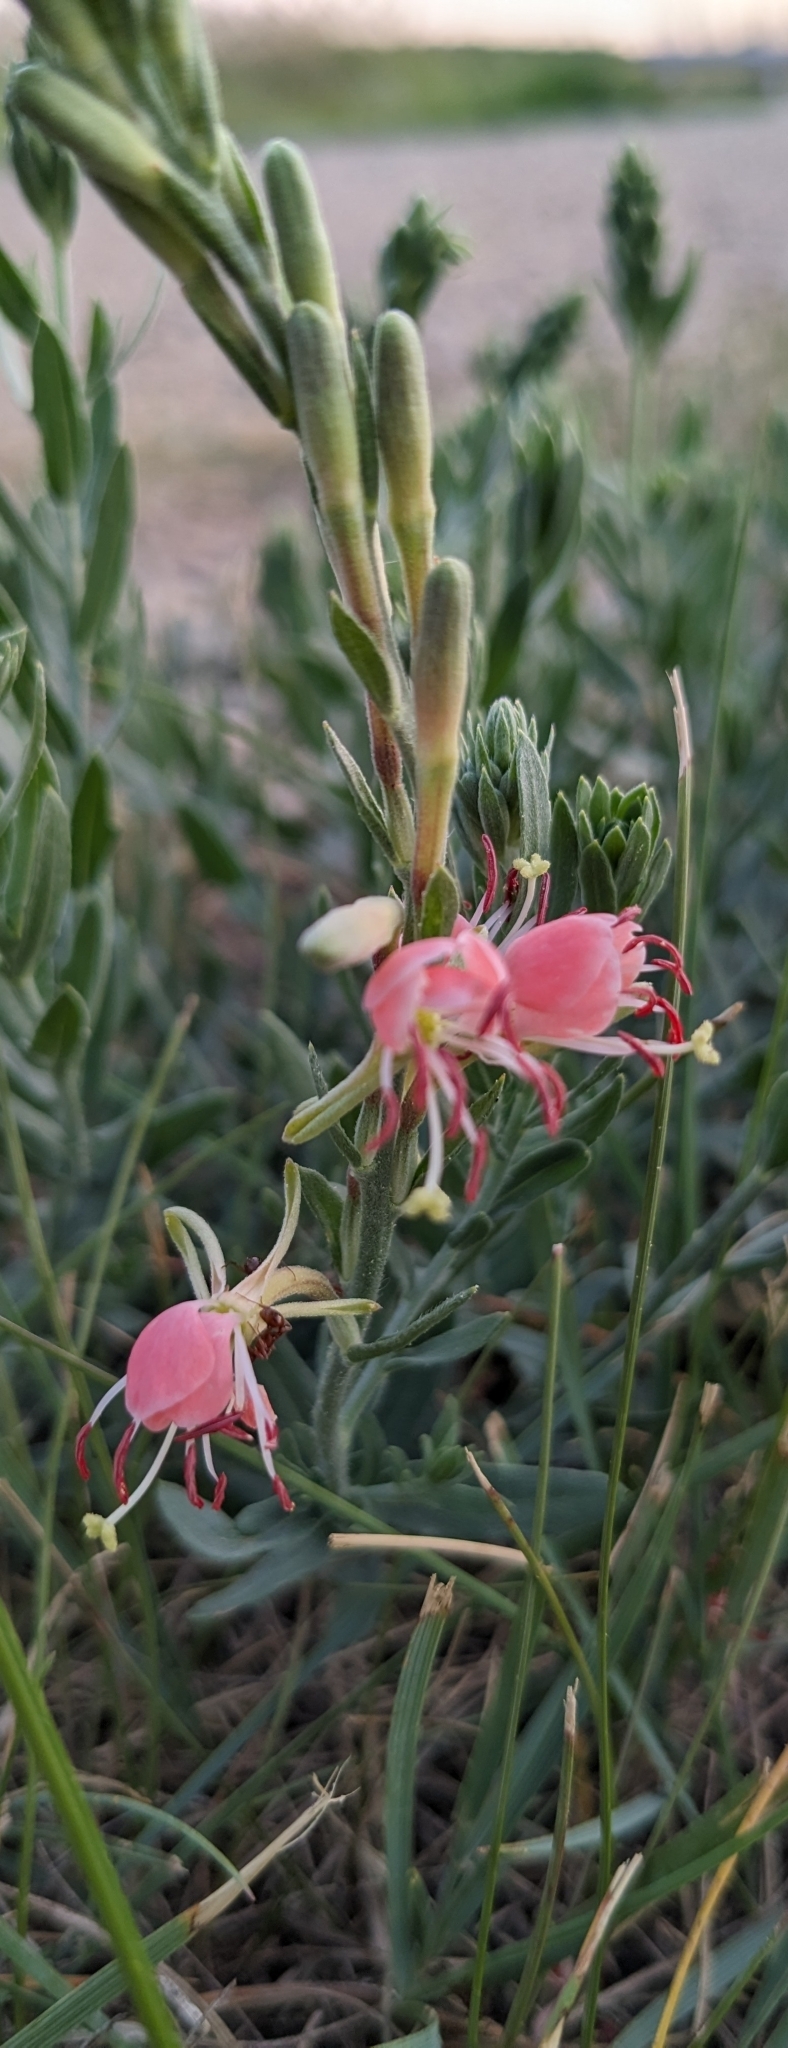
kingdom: Plantae
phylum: Tracheophyta
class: Magnoliopsida
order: Myrtales
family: Onagraceae
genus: Oenothera
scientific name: Oenothera suffrutescens
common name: Scarlet beeblossom
